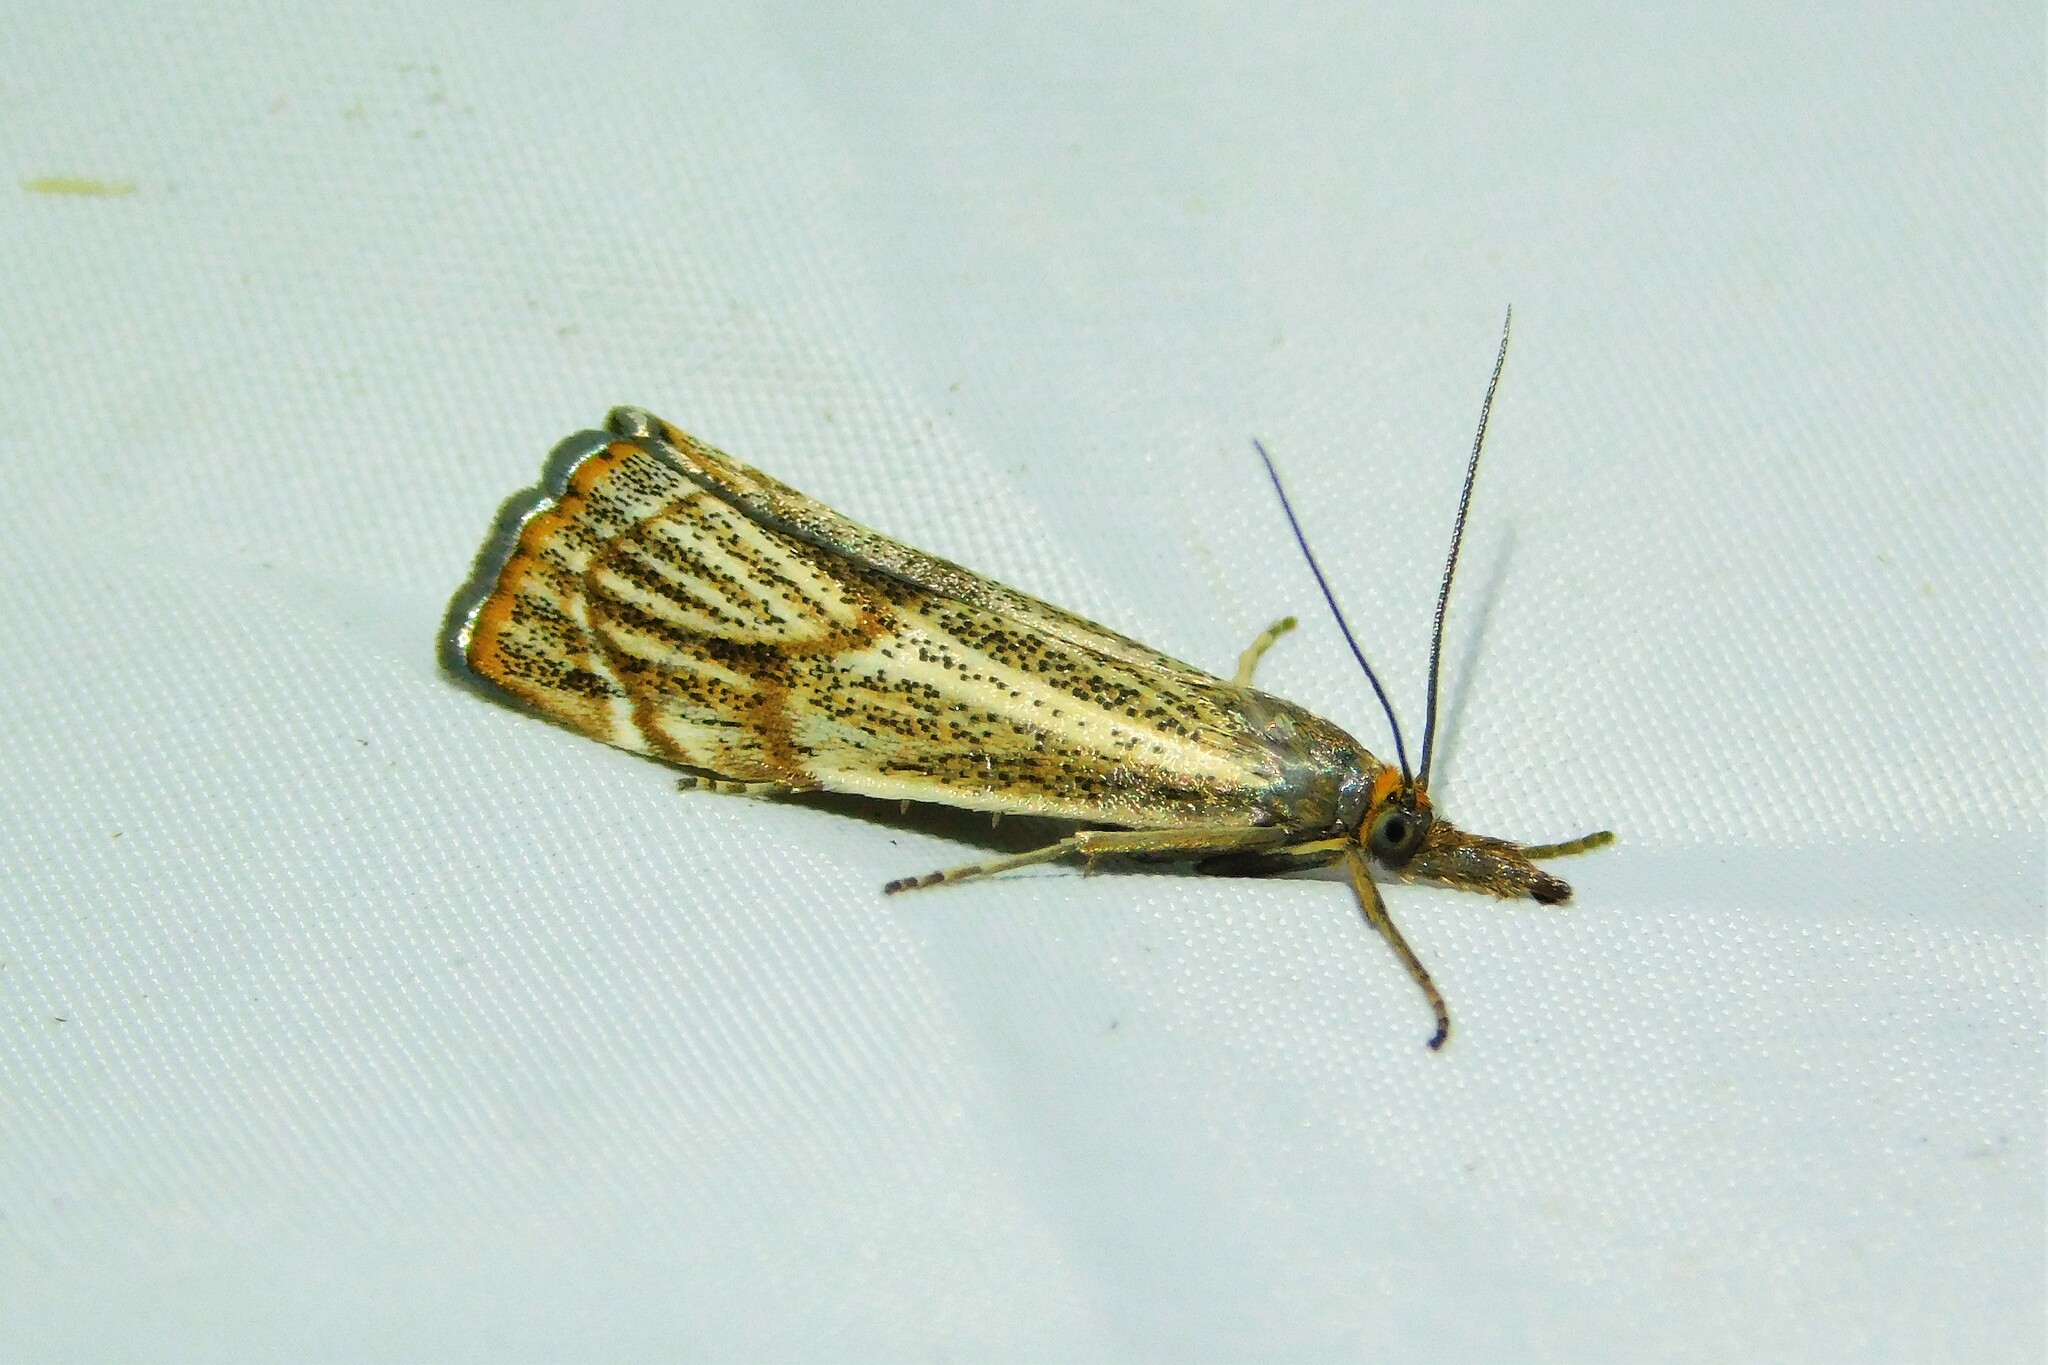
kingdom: Animalia
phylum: Arthropoda
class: Insecta
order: Lepidoptera
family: Crambidae
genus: Thisanotia
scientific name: Thisanotia chrysonuchella
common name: Powdered grass-veneer
